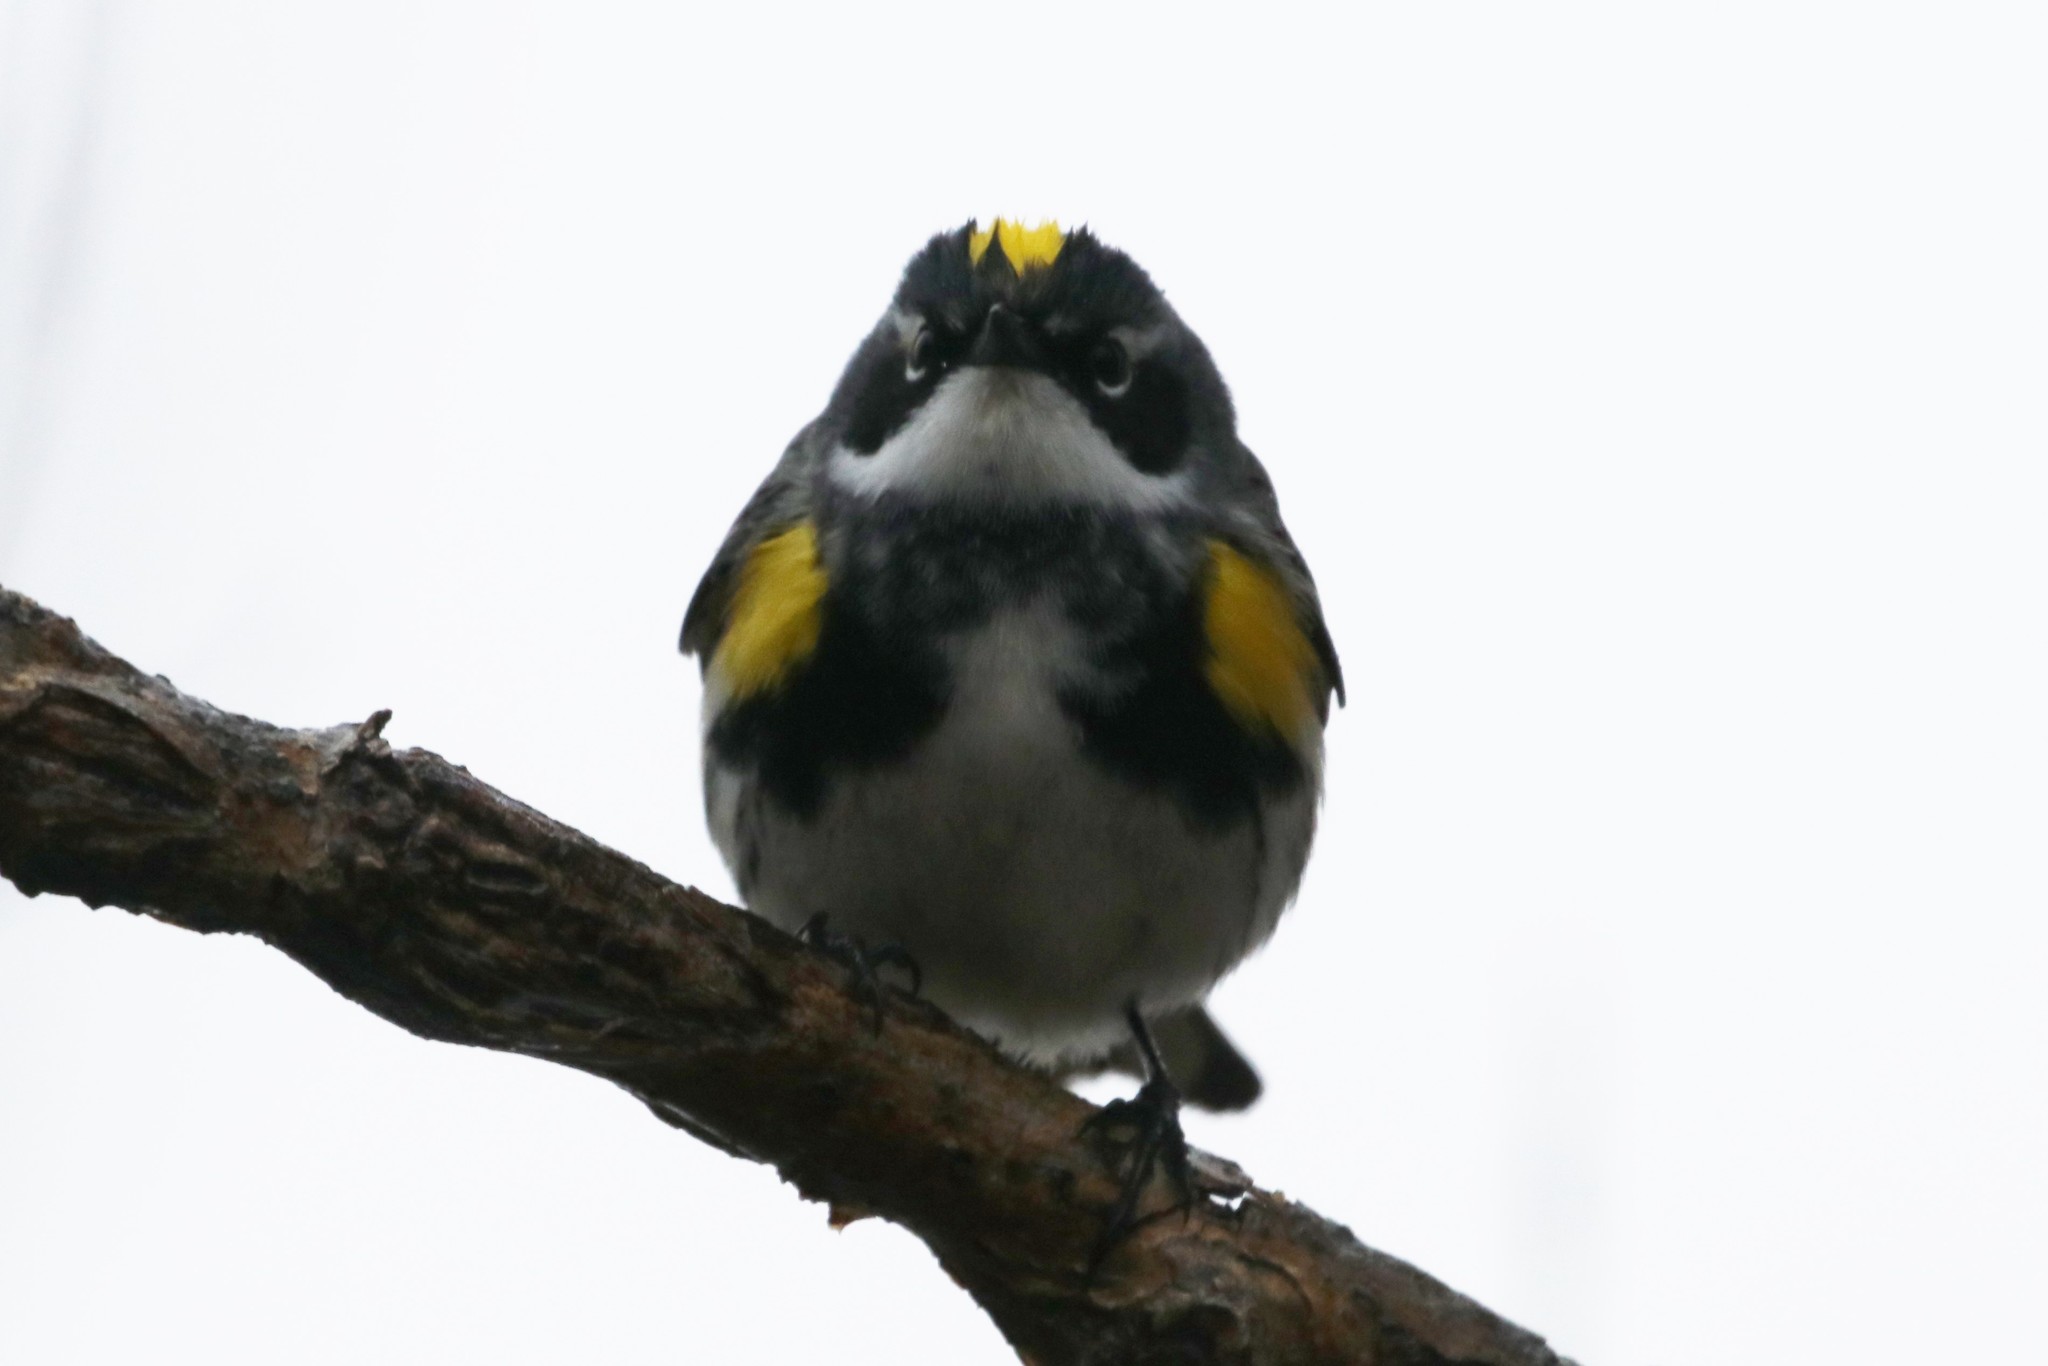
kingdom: Animalia
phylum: Chordata
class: Aves
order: Passeriformes
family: Parulidae
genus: Setophaga
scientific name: Setophaga coronata
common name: Myrtle warbler
